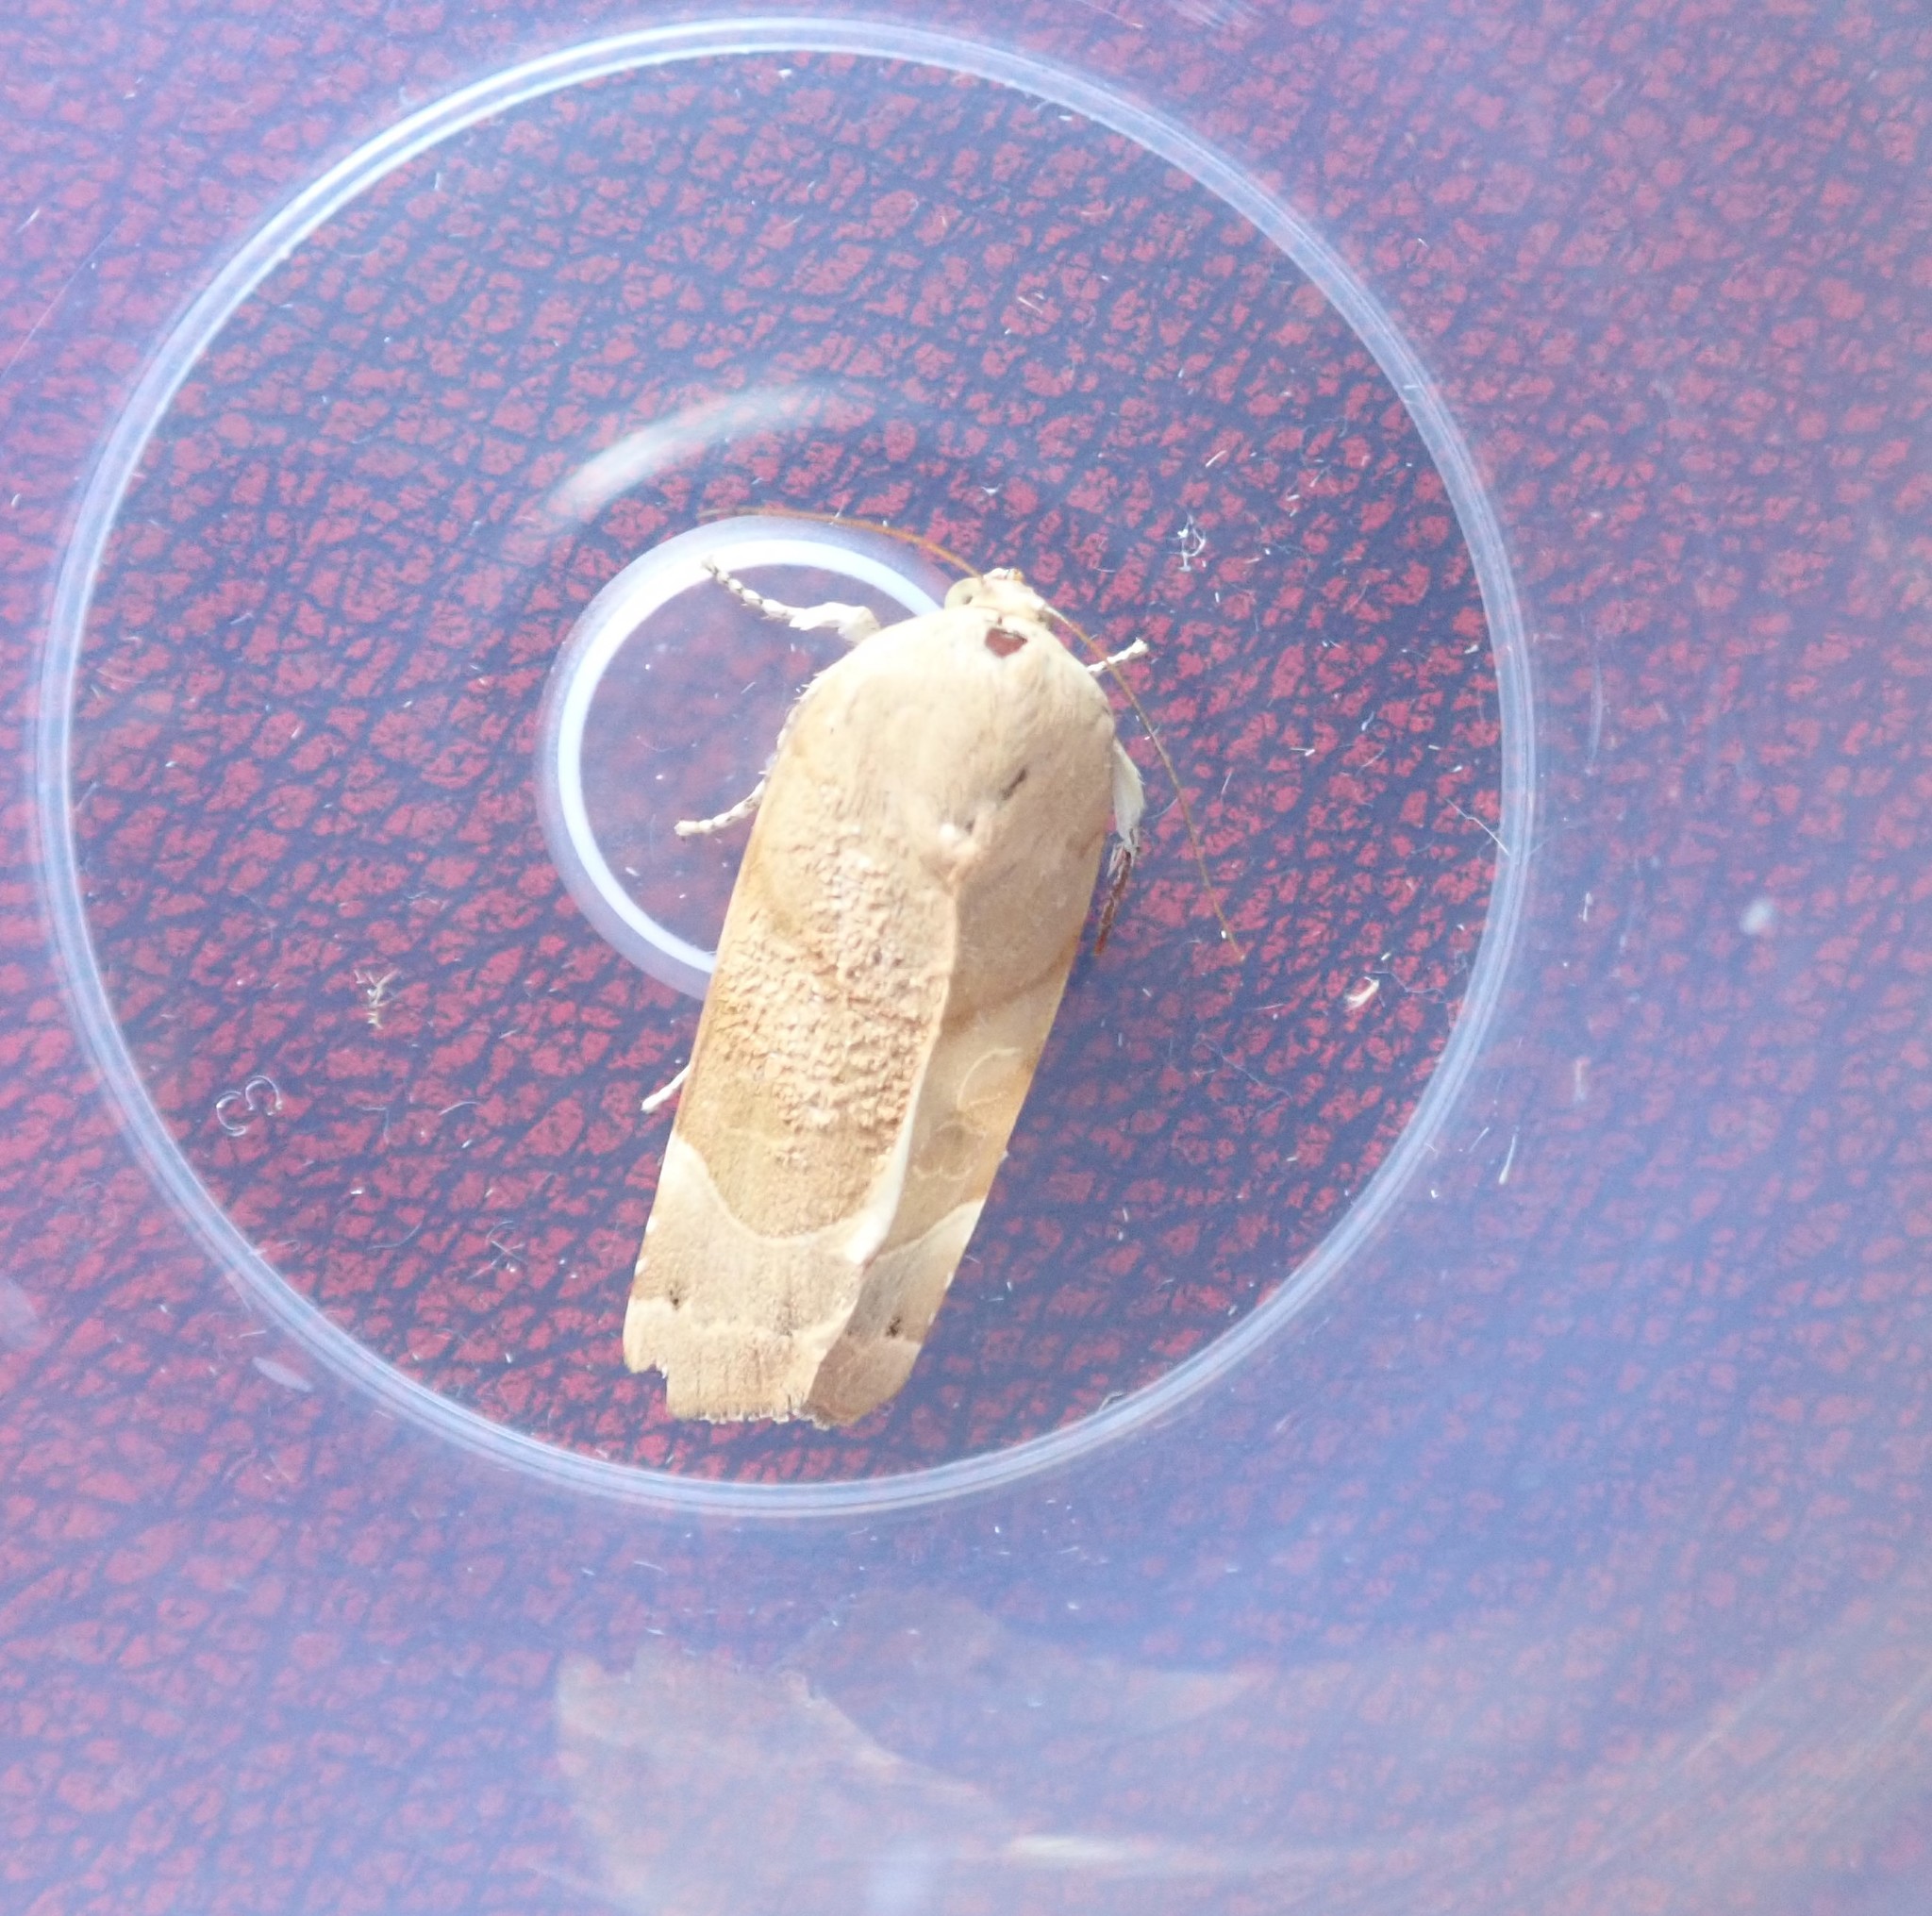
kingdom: Animalia
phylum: Arthropoda
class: Insecta
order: Lepidoptera
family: Noctuidae
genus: Noctua
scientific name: Noctua fimbriata
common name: Broad-bordered yellow underwing
